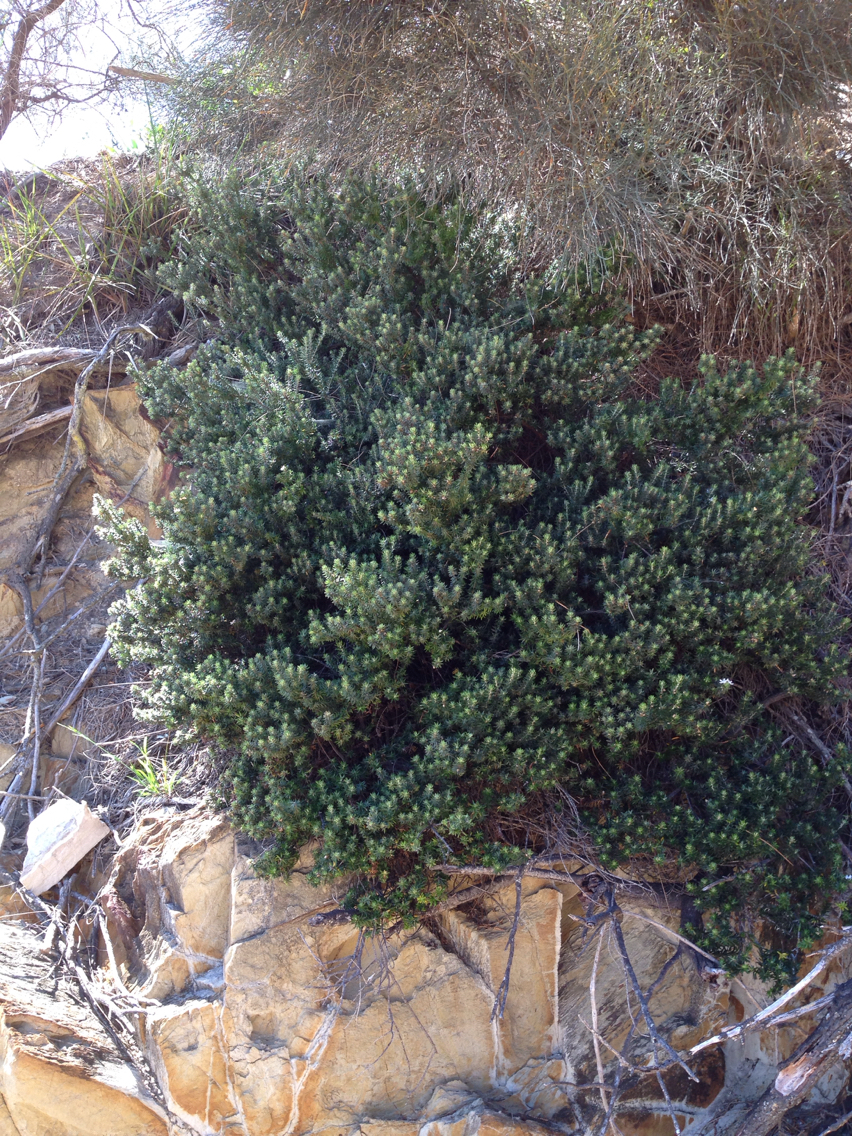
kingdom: Plantae
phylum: Tracheophyta
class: Magnoliopsida
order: Lamiales
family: Lamiaceae
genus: Westringia
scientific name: Westringia fruticosa
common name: Coastal-rosemary
